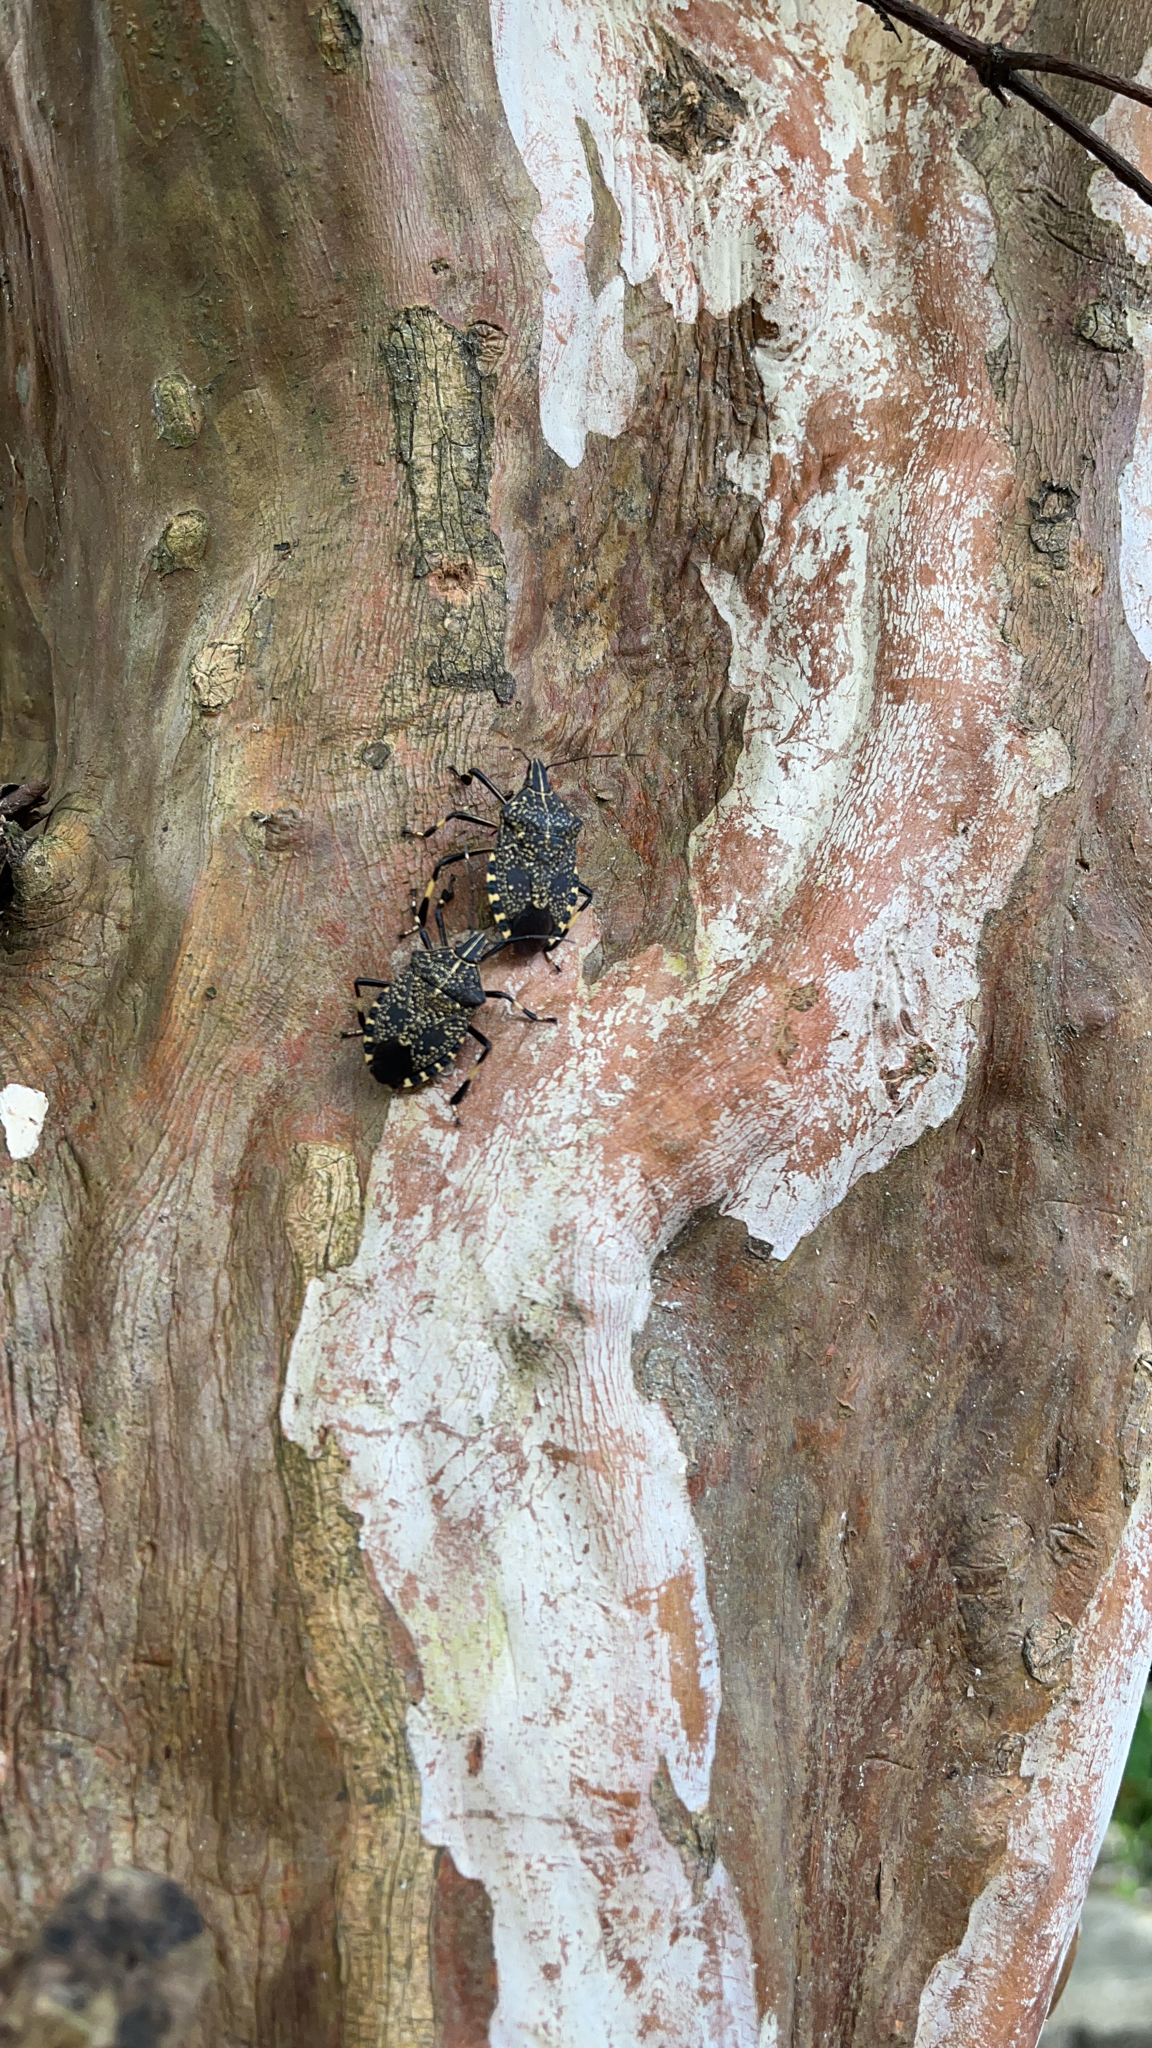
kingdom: Animalia
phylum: Arthropoda
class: Insecta
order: Hemiptera
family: Pentatomidae
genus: Erthesina
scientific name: Erthesina fullo
